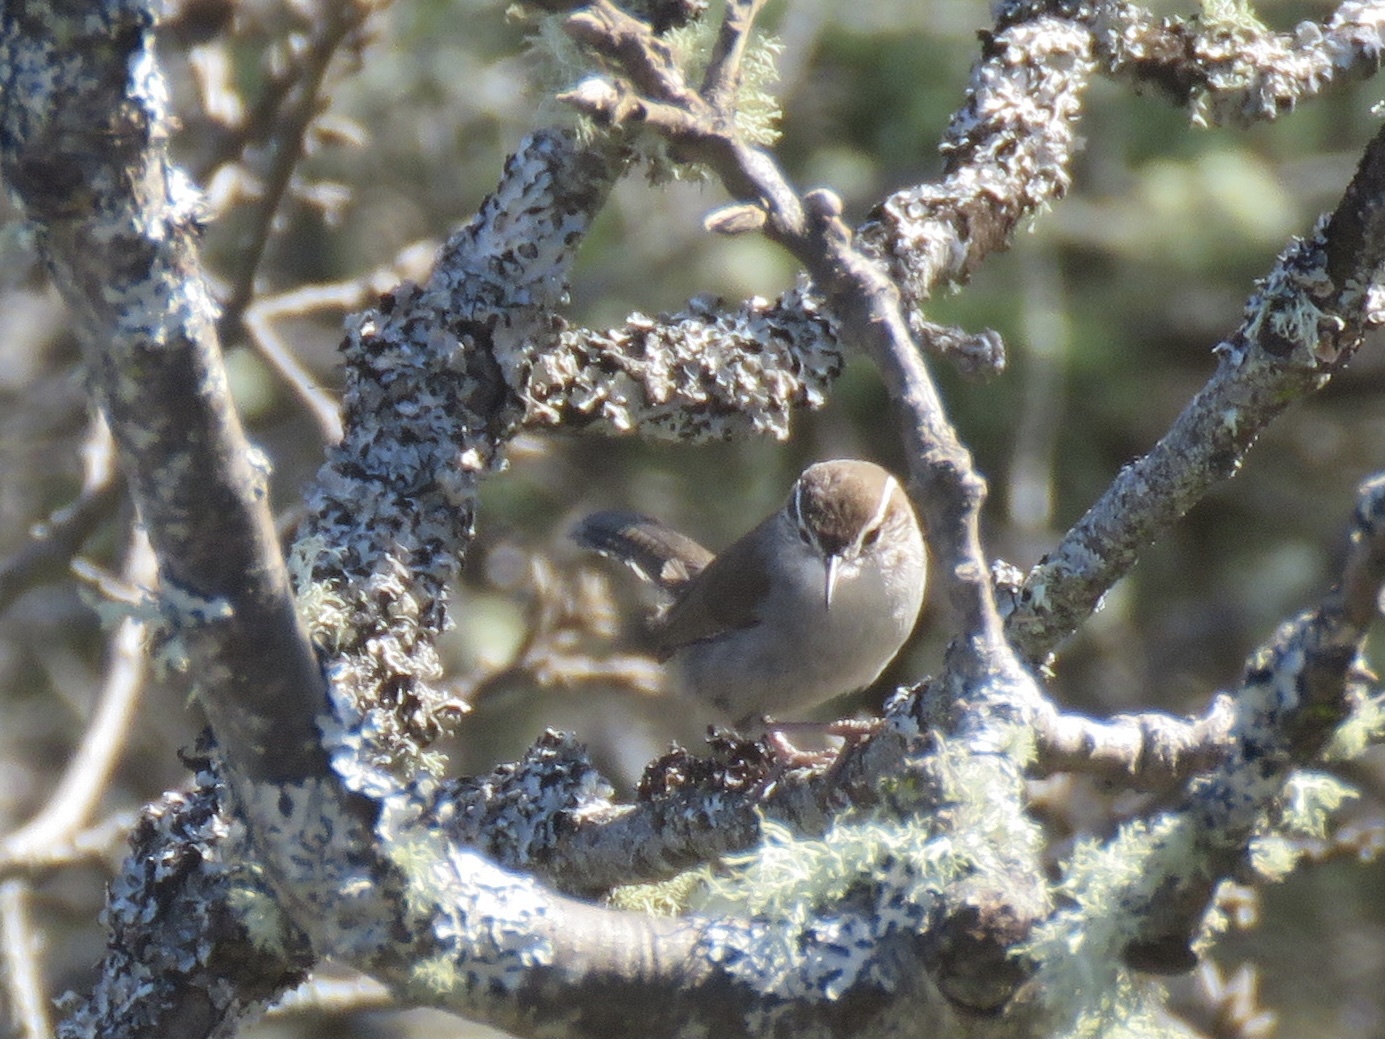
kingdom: Animalia
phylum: Chordata
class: Aves
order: Passeriformes
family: Troglodytidae
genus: Thryomanes
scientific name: Thryomanes bewickii
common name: Bewick's wren
